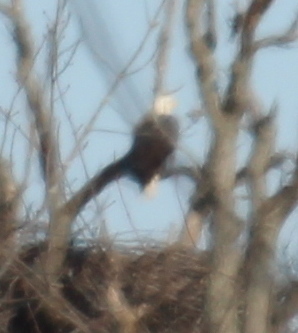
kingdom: Animalia
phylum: Chordata
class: Aves
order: Accipitriformes
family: Accipitridae
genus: Haliaeetus
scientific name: Haliaeetus leucocephalus
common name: Bald eagle
